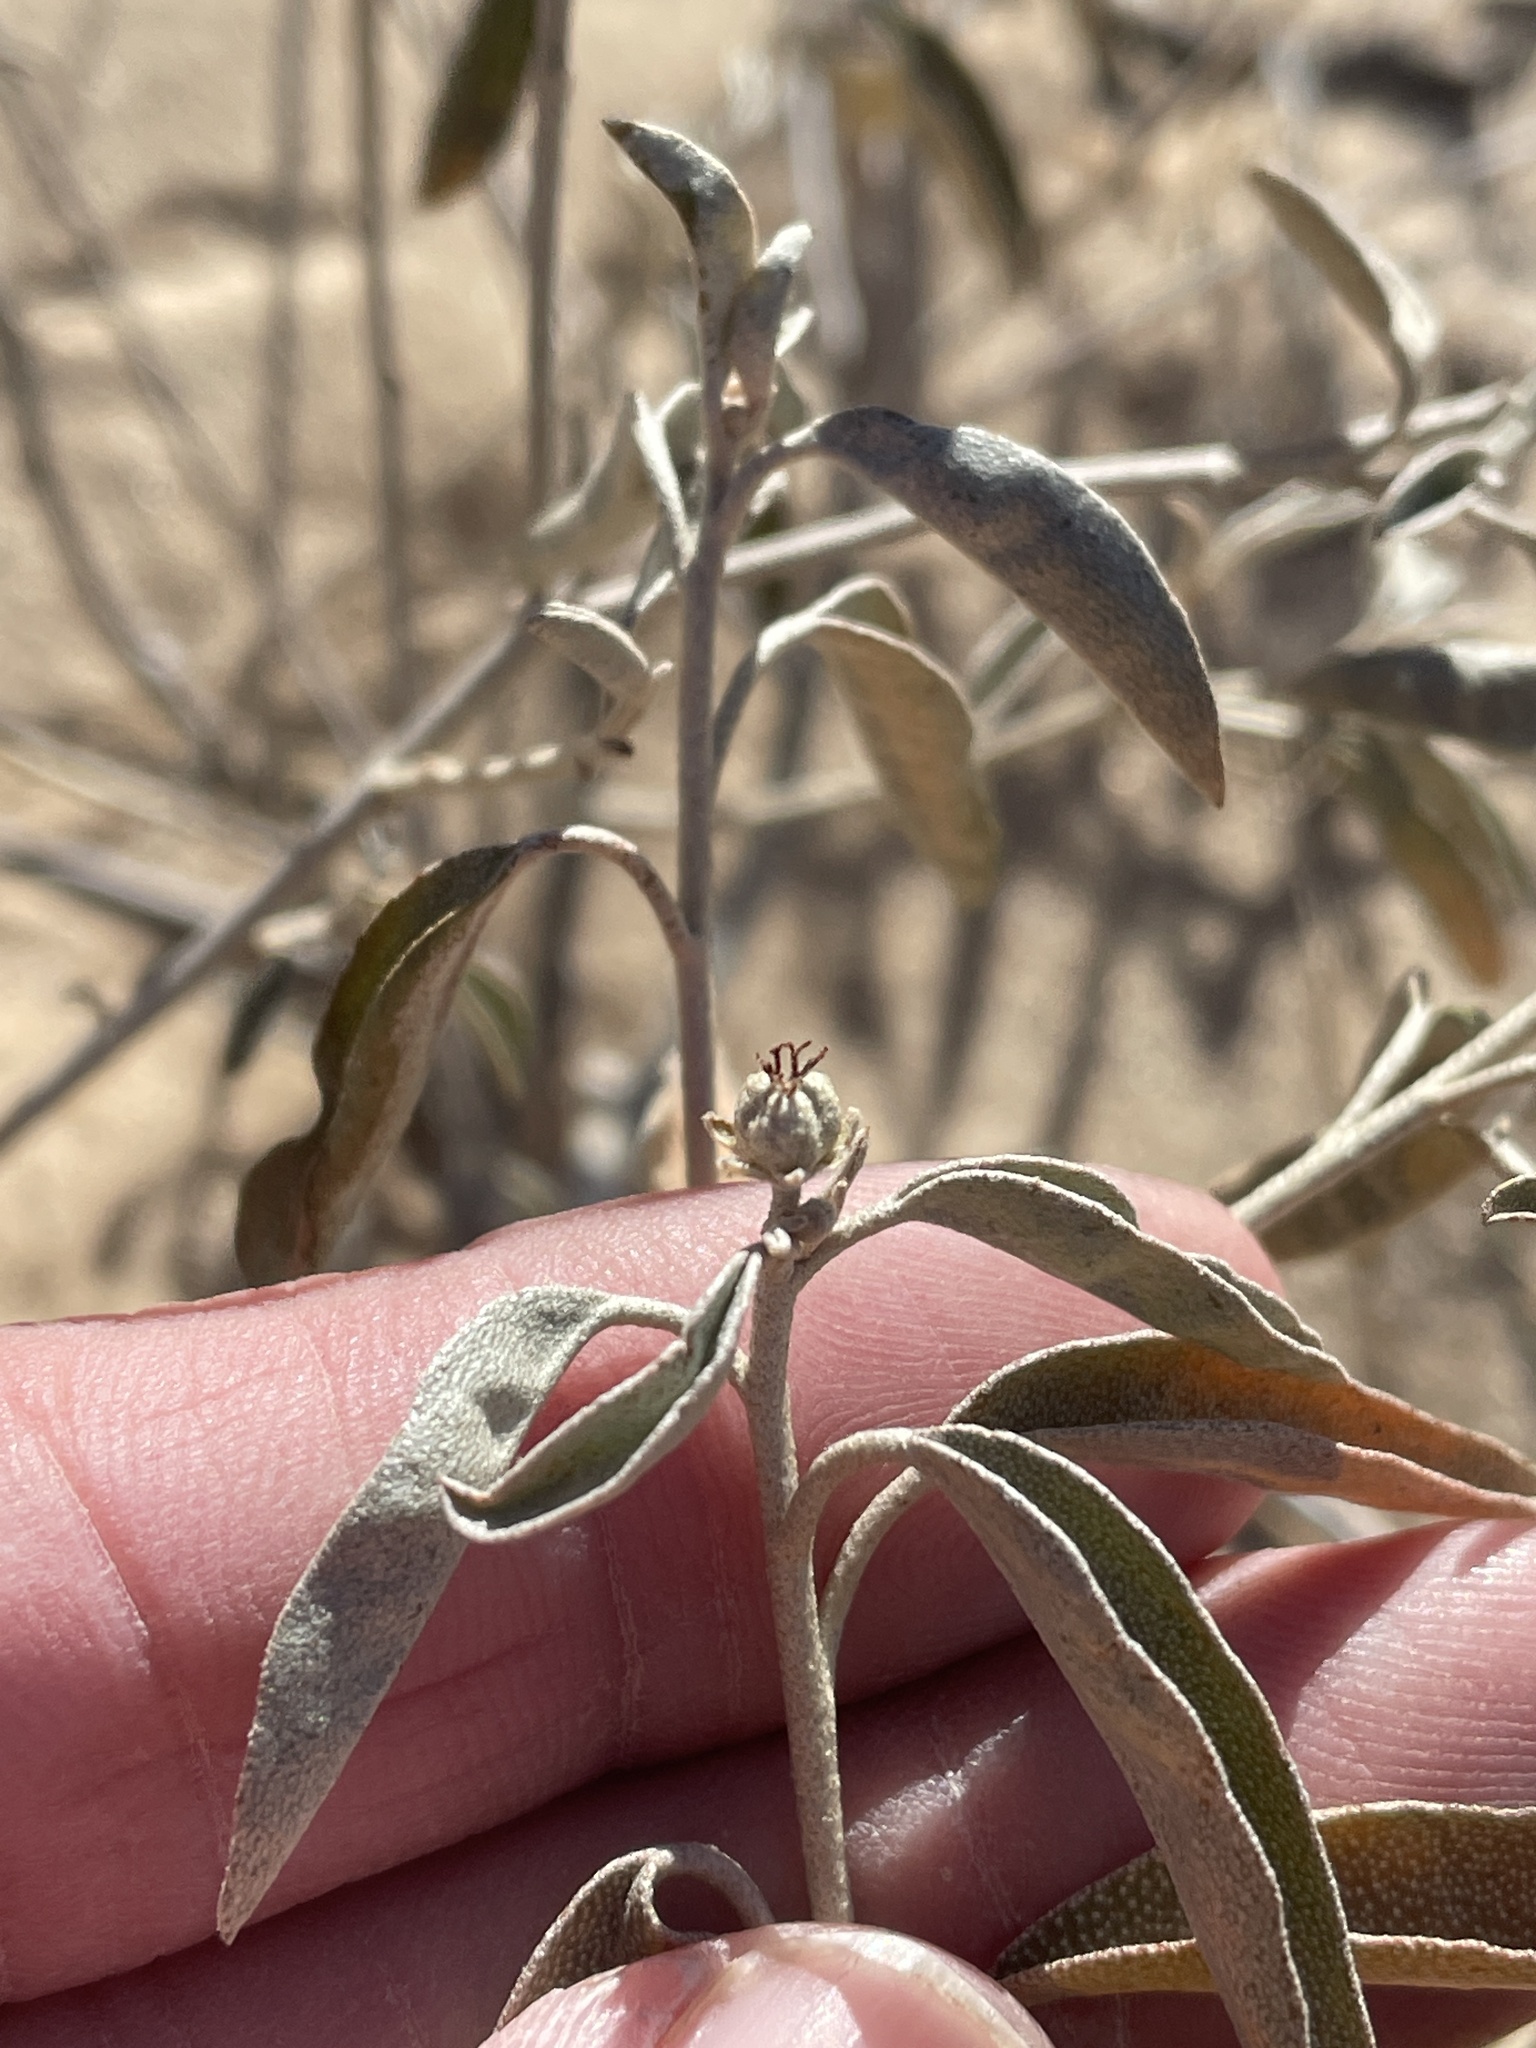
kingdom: Plantae
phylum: Tracheophyta
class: Magnoliopsida
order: Malpighiales
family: Euphorbiaceae
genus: Croton
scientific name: Croton dioicus
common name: Grassland croton
